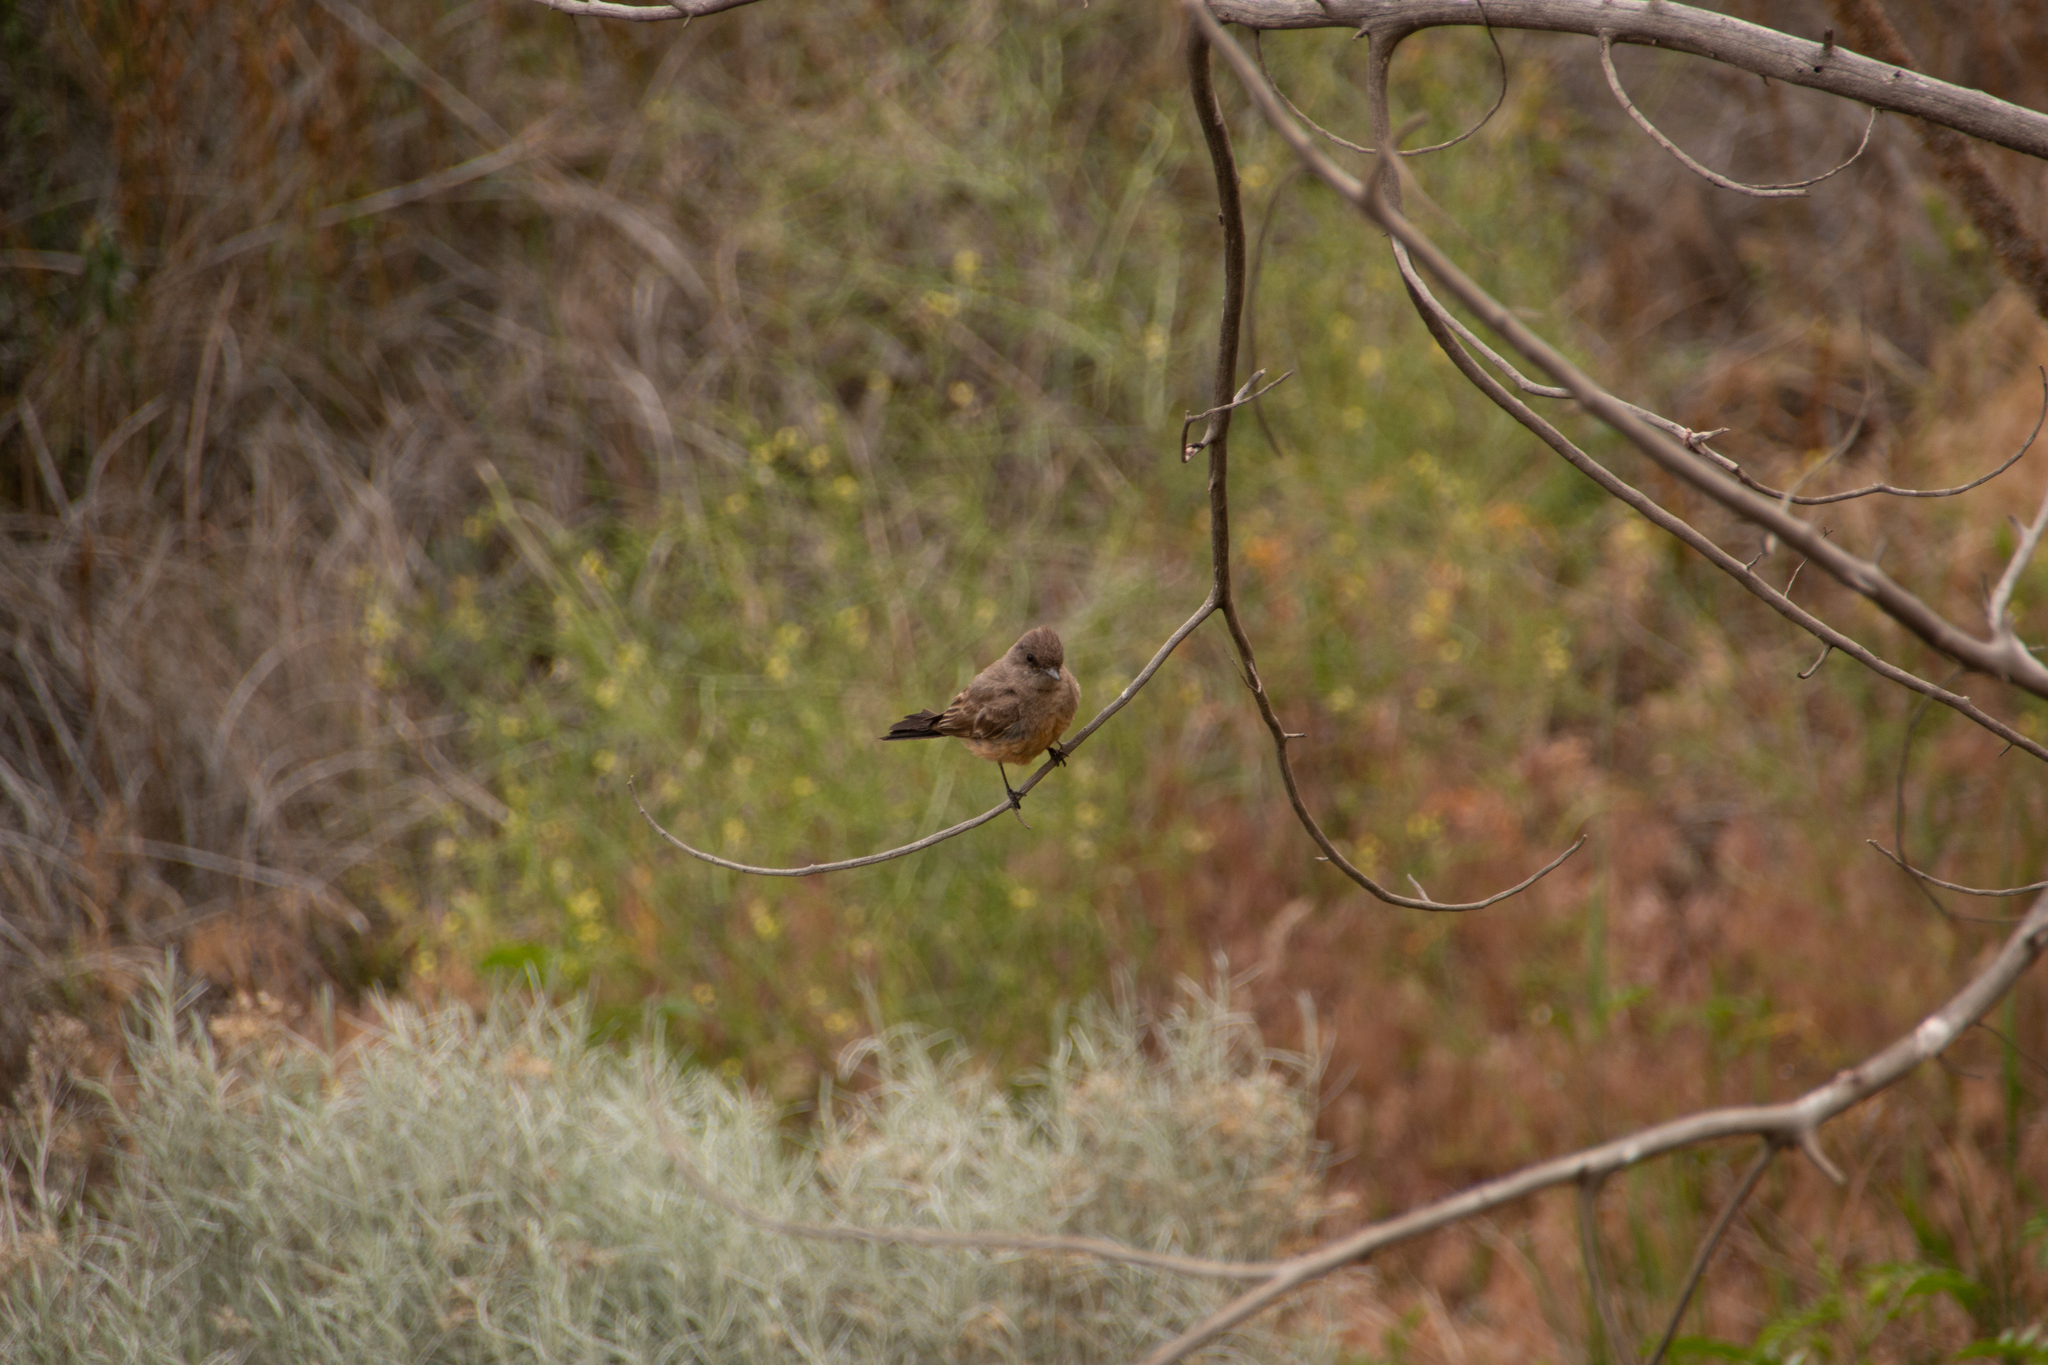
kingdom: Animalia
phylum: Chordata
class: Aves
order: Passeriformes
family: Tyrannidae
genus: Sayornis
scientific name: Sayornis saya
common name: Say's phoebe
